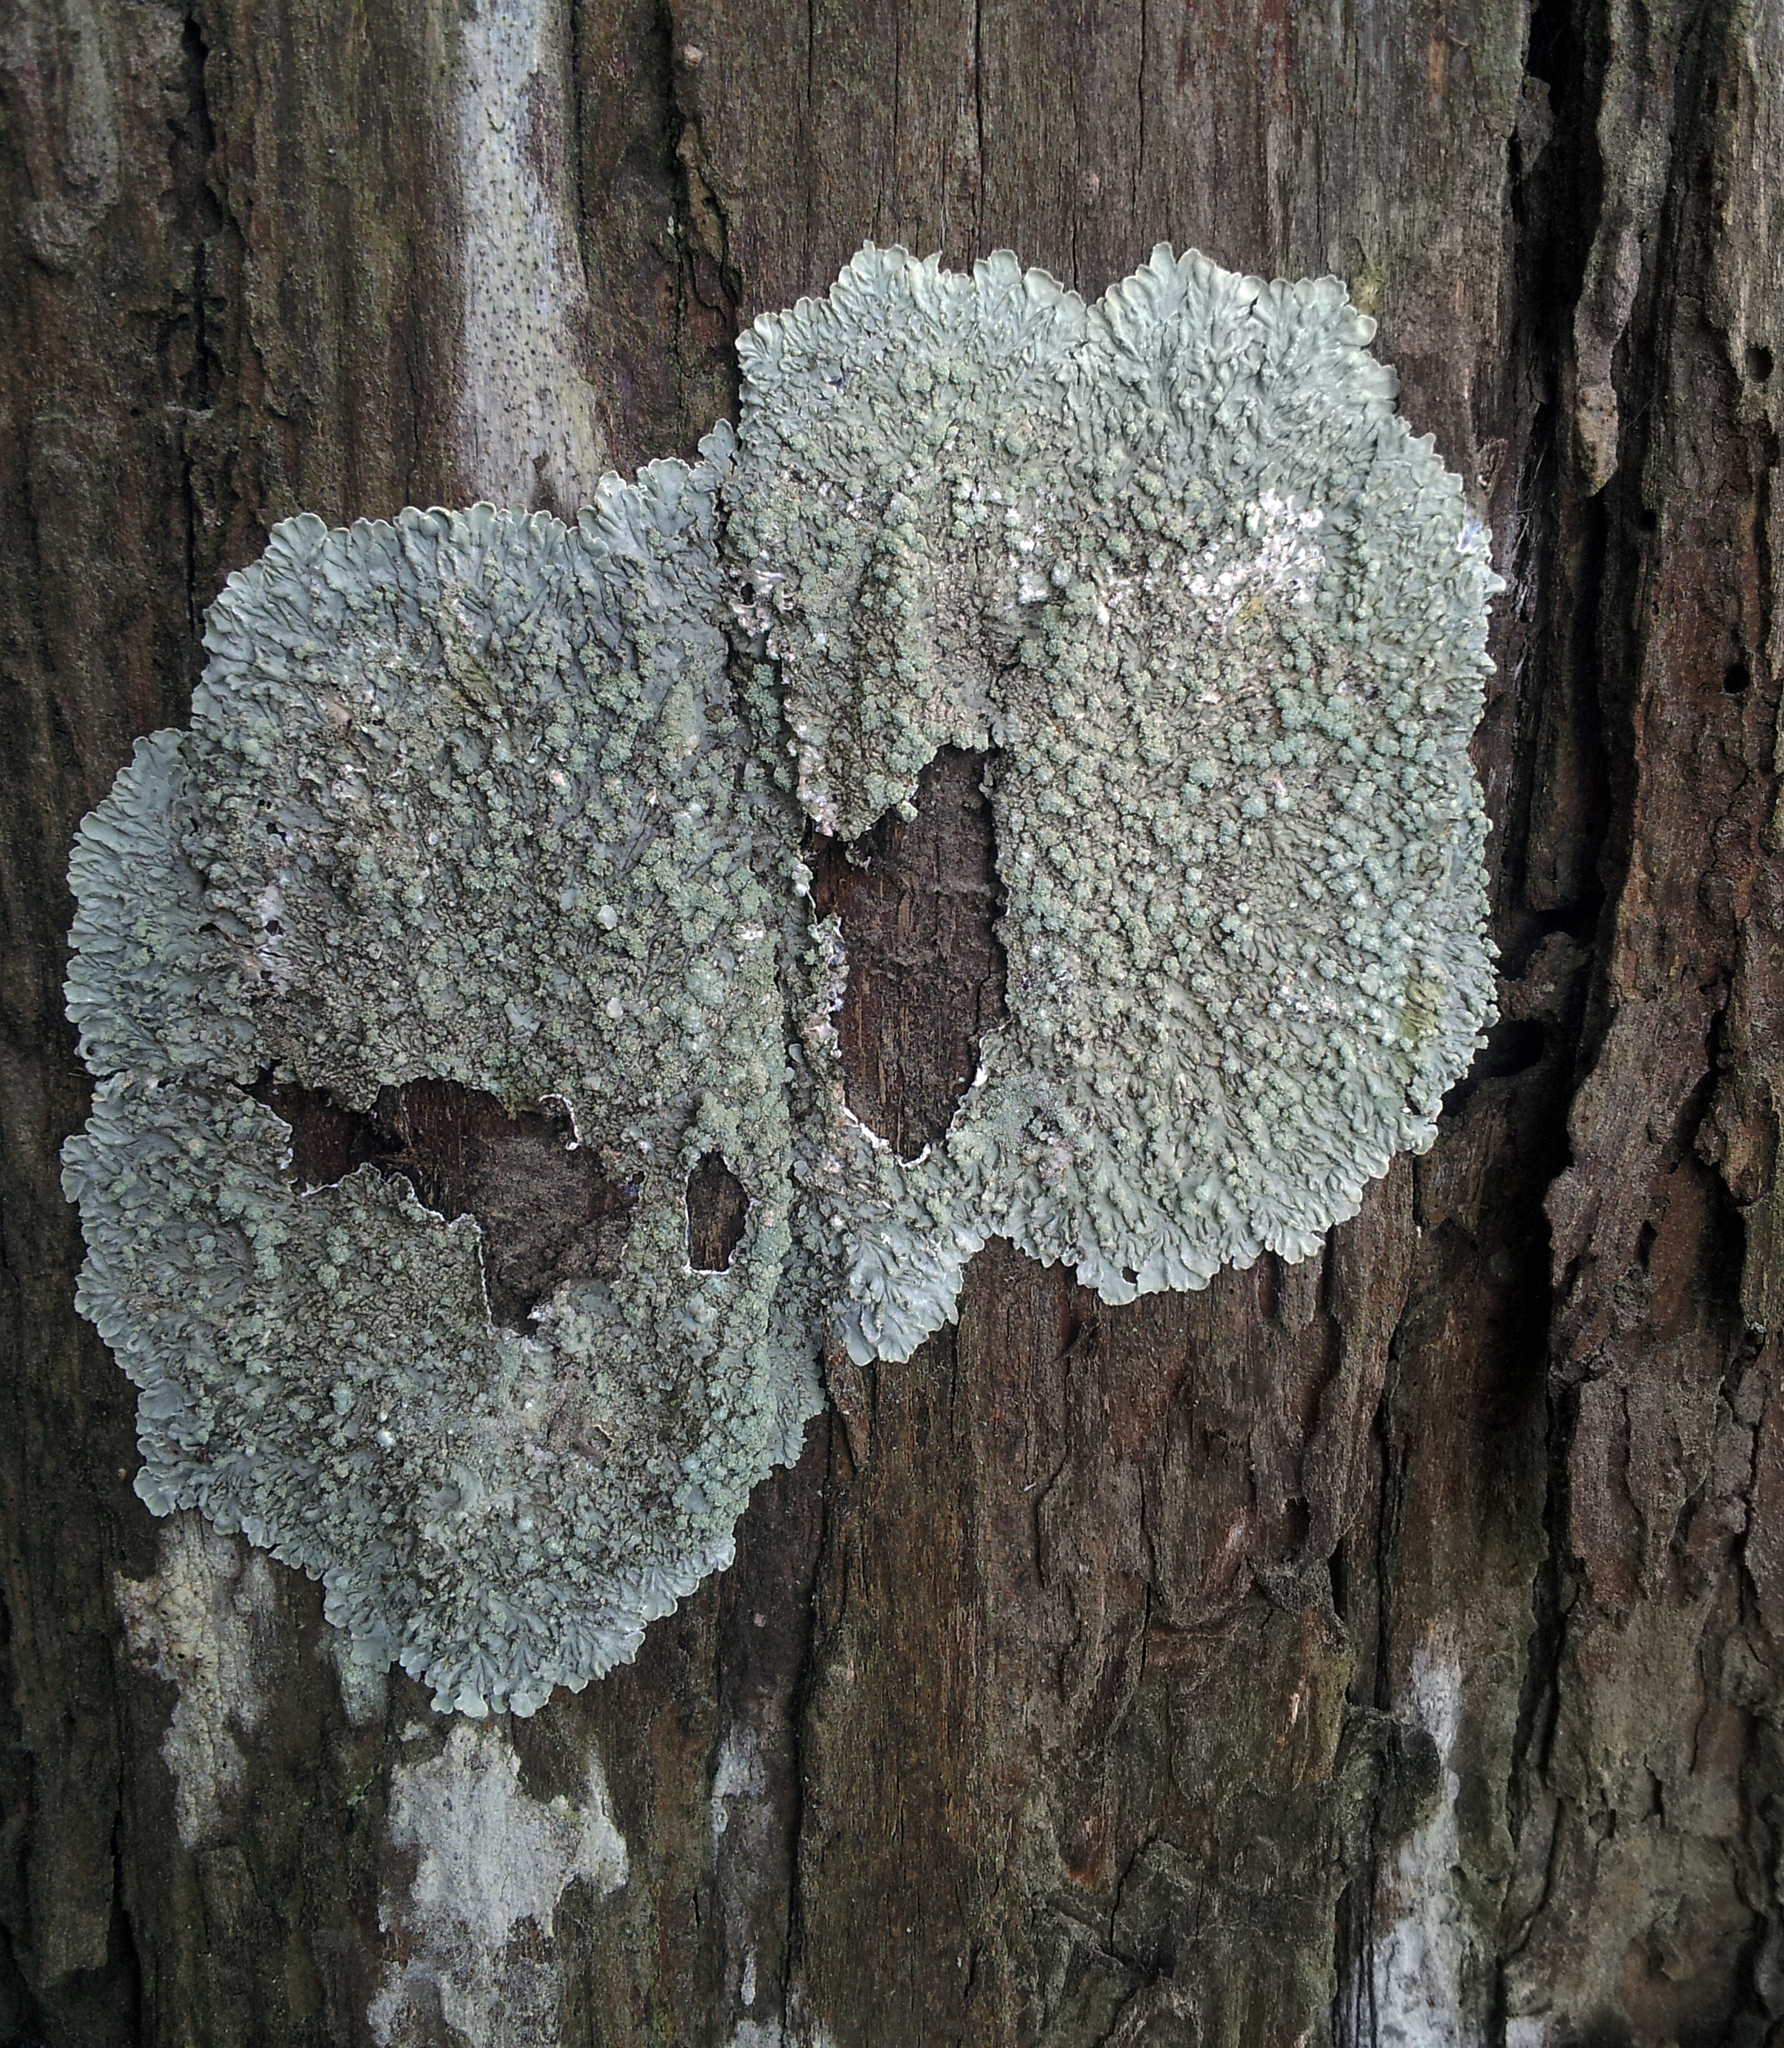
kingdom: Fungi
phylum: Ascomycota
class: Lecanoromycetes
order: Caliciales
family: Caliciaceae
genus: Dirinaria
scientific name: Dirinaria applanata
